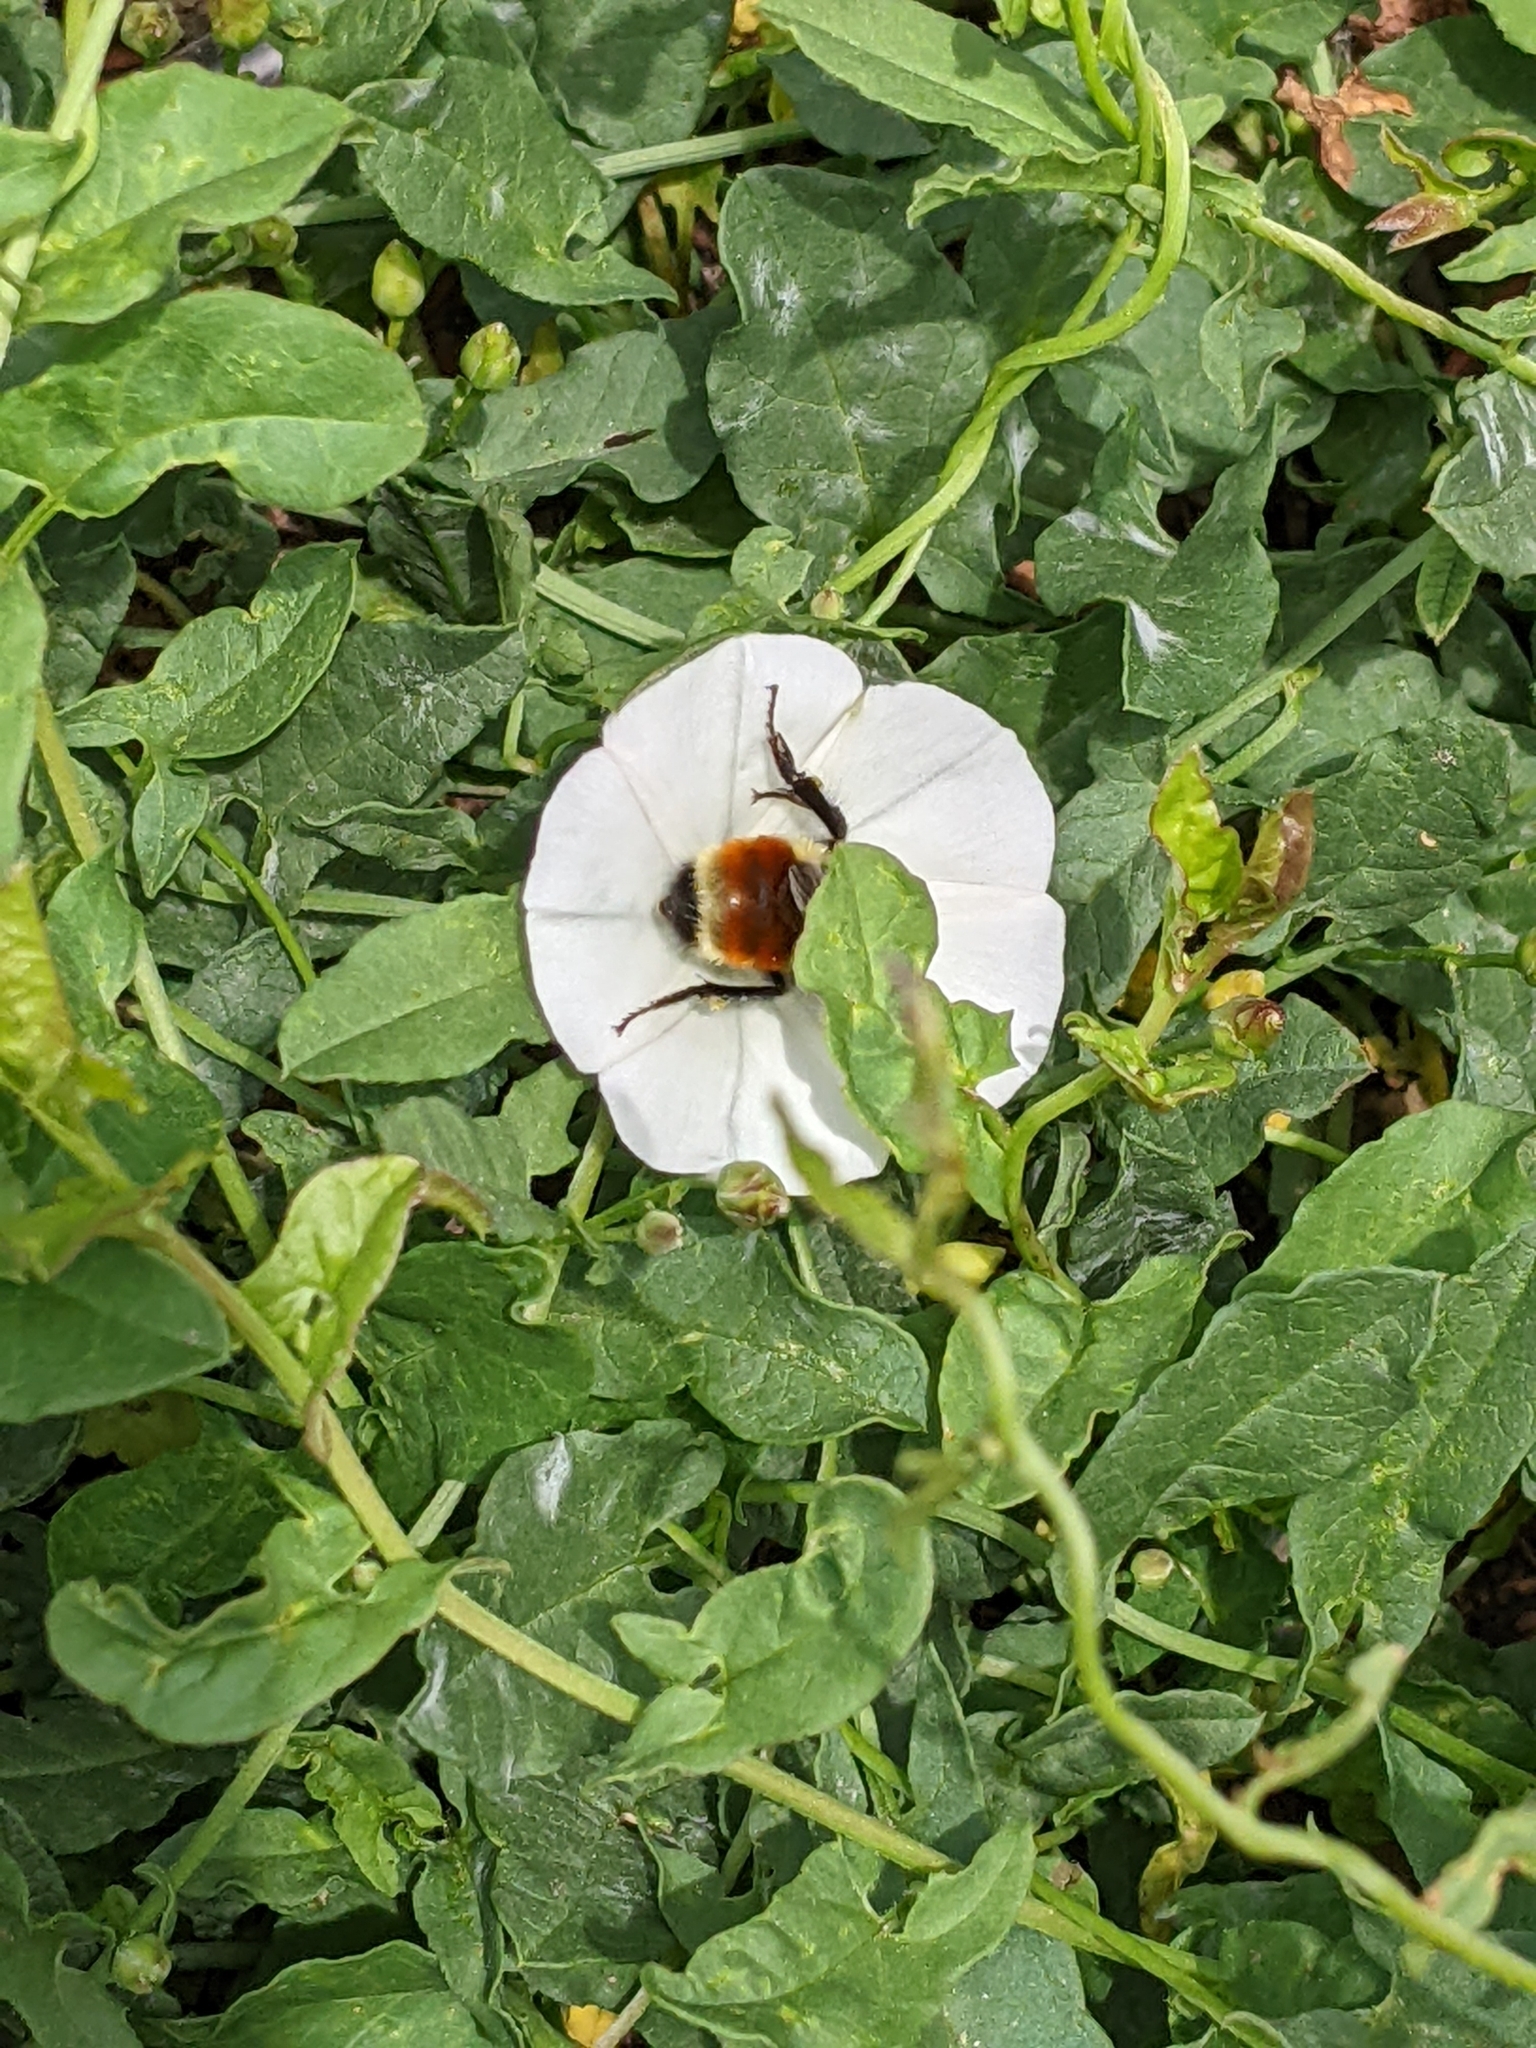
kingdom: Animalia
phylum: Arthropoda
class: Insecta
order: Hymenoptera
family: Apidae
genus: Bombus
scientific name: Bombus huntii
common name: Hunt bumble bee
